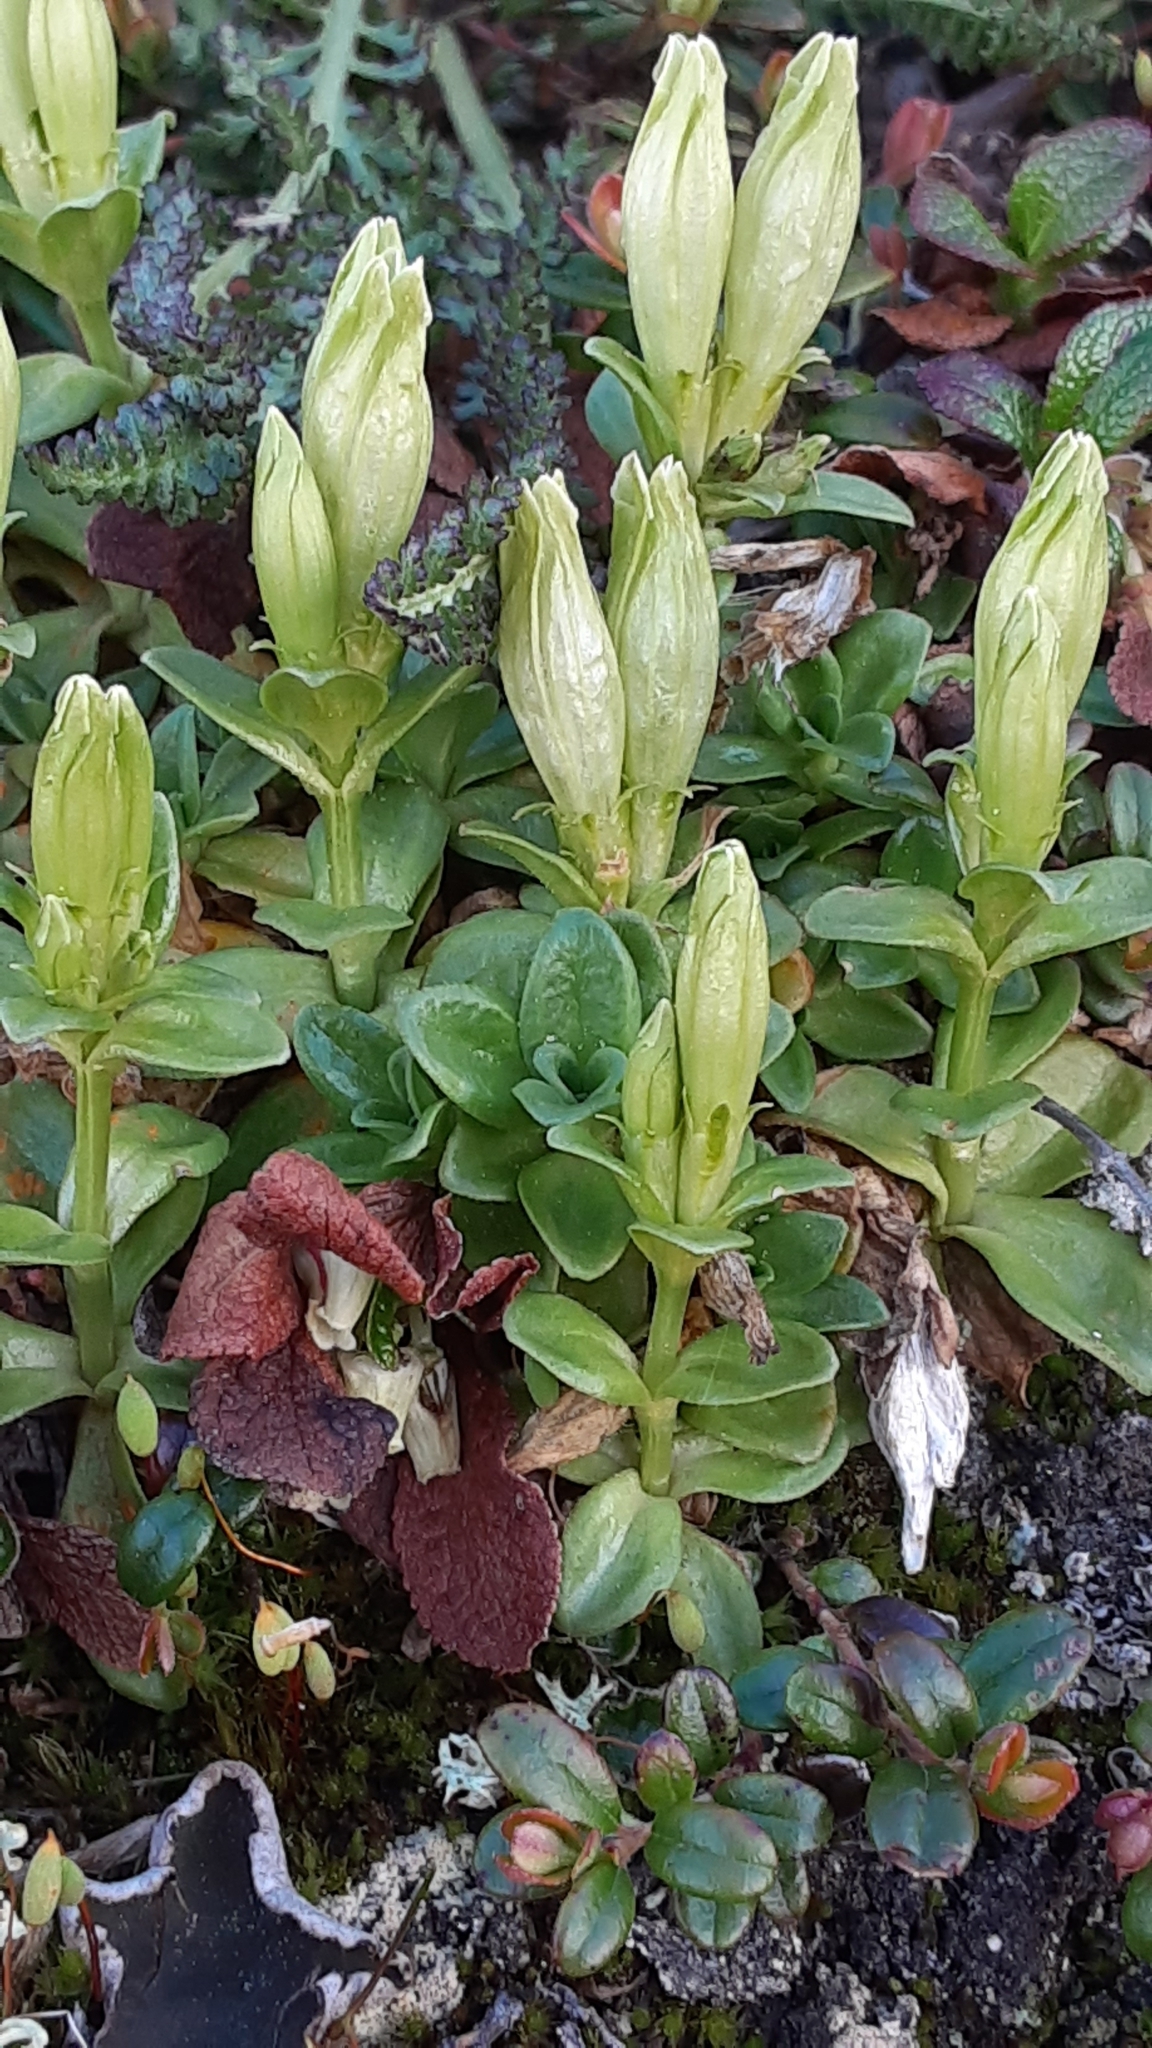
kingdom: Plantae
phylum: Tracheophyta
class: Magnoliopsida
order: Gentianales
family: Gentianaceae
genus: Gentiana
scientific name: Gentiana glauca
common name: Alpine gentian
